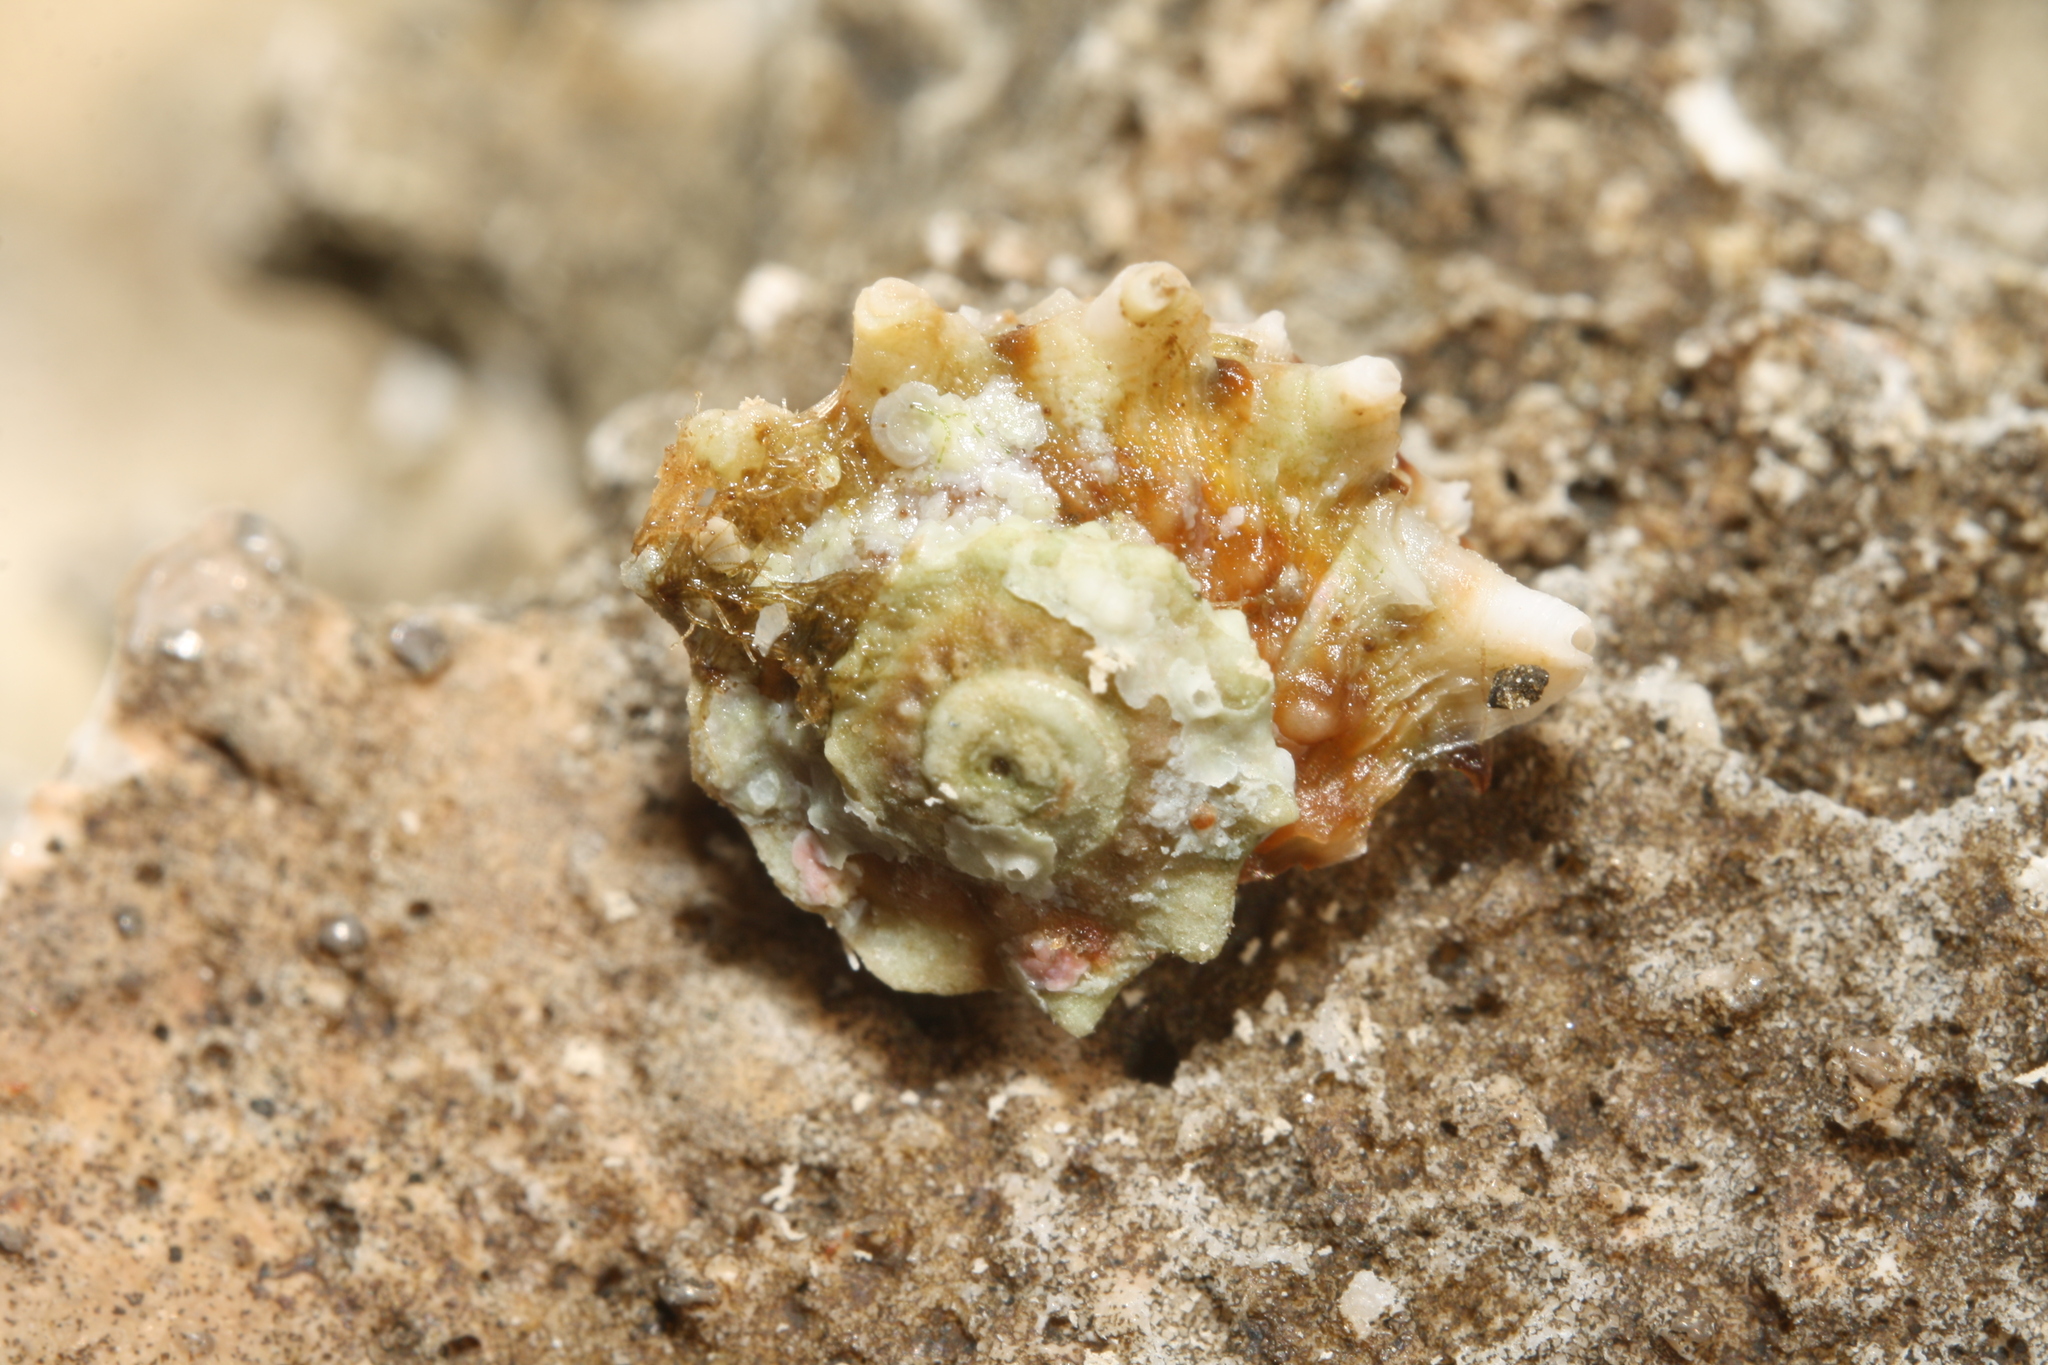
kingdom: Animalia
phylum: Mollusca
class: Gastropoda
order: Trochida
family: Turbinidae
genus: Bolma
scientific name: Bolma rugosa
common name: Rough star shell
